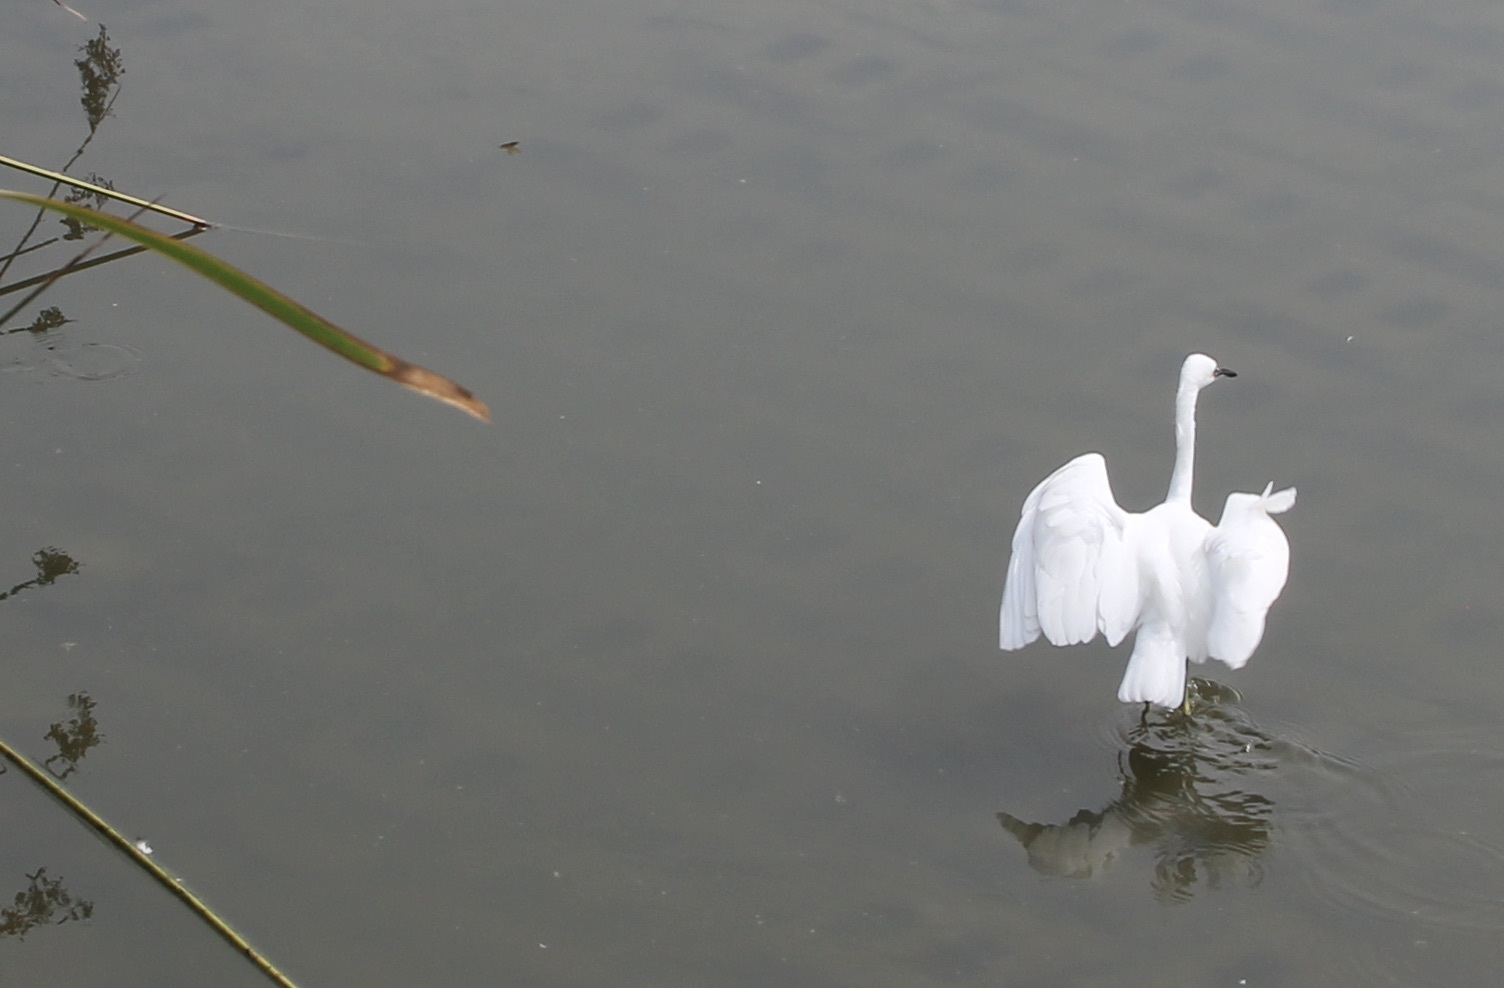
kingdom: Animalia
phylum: Chordata
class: Aves
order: Pelecaniformes
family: Ardeidae
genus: Egretta
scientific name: Egretta thula
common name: Snowy egret
